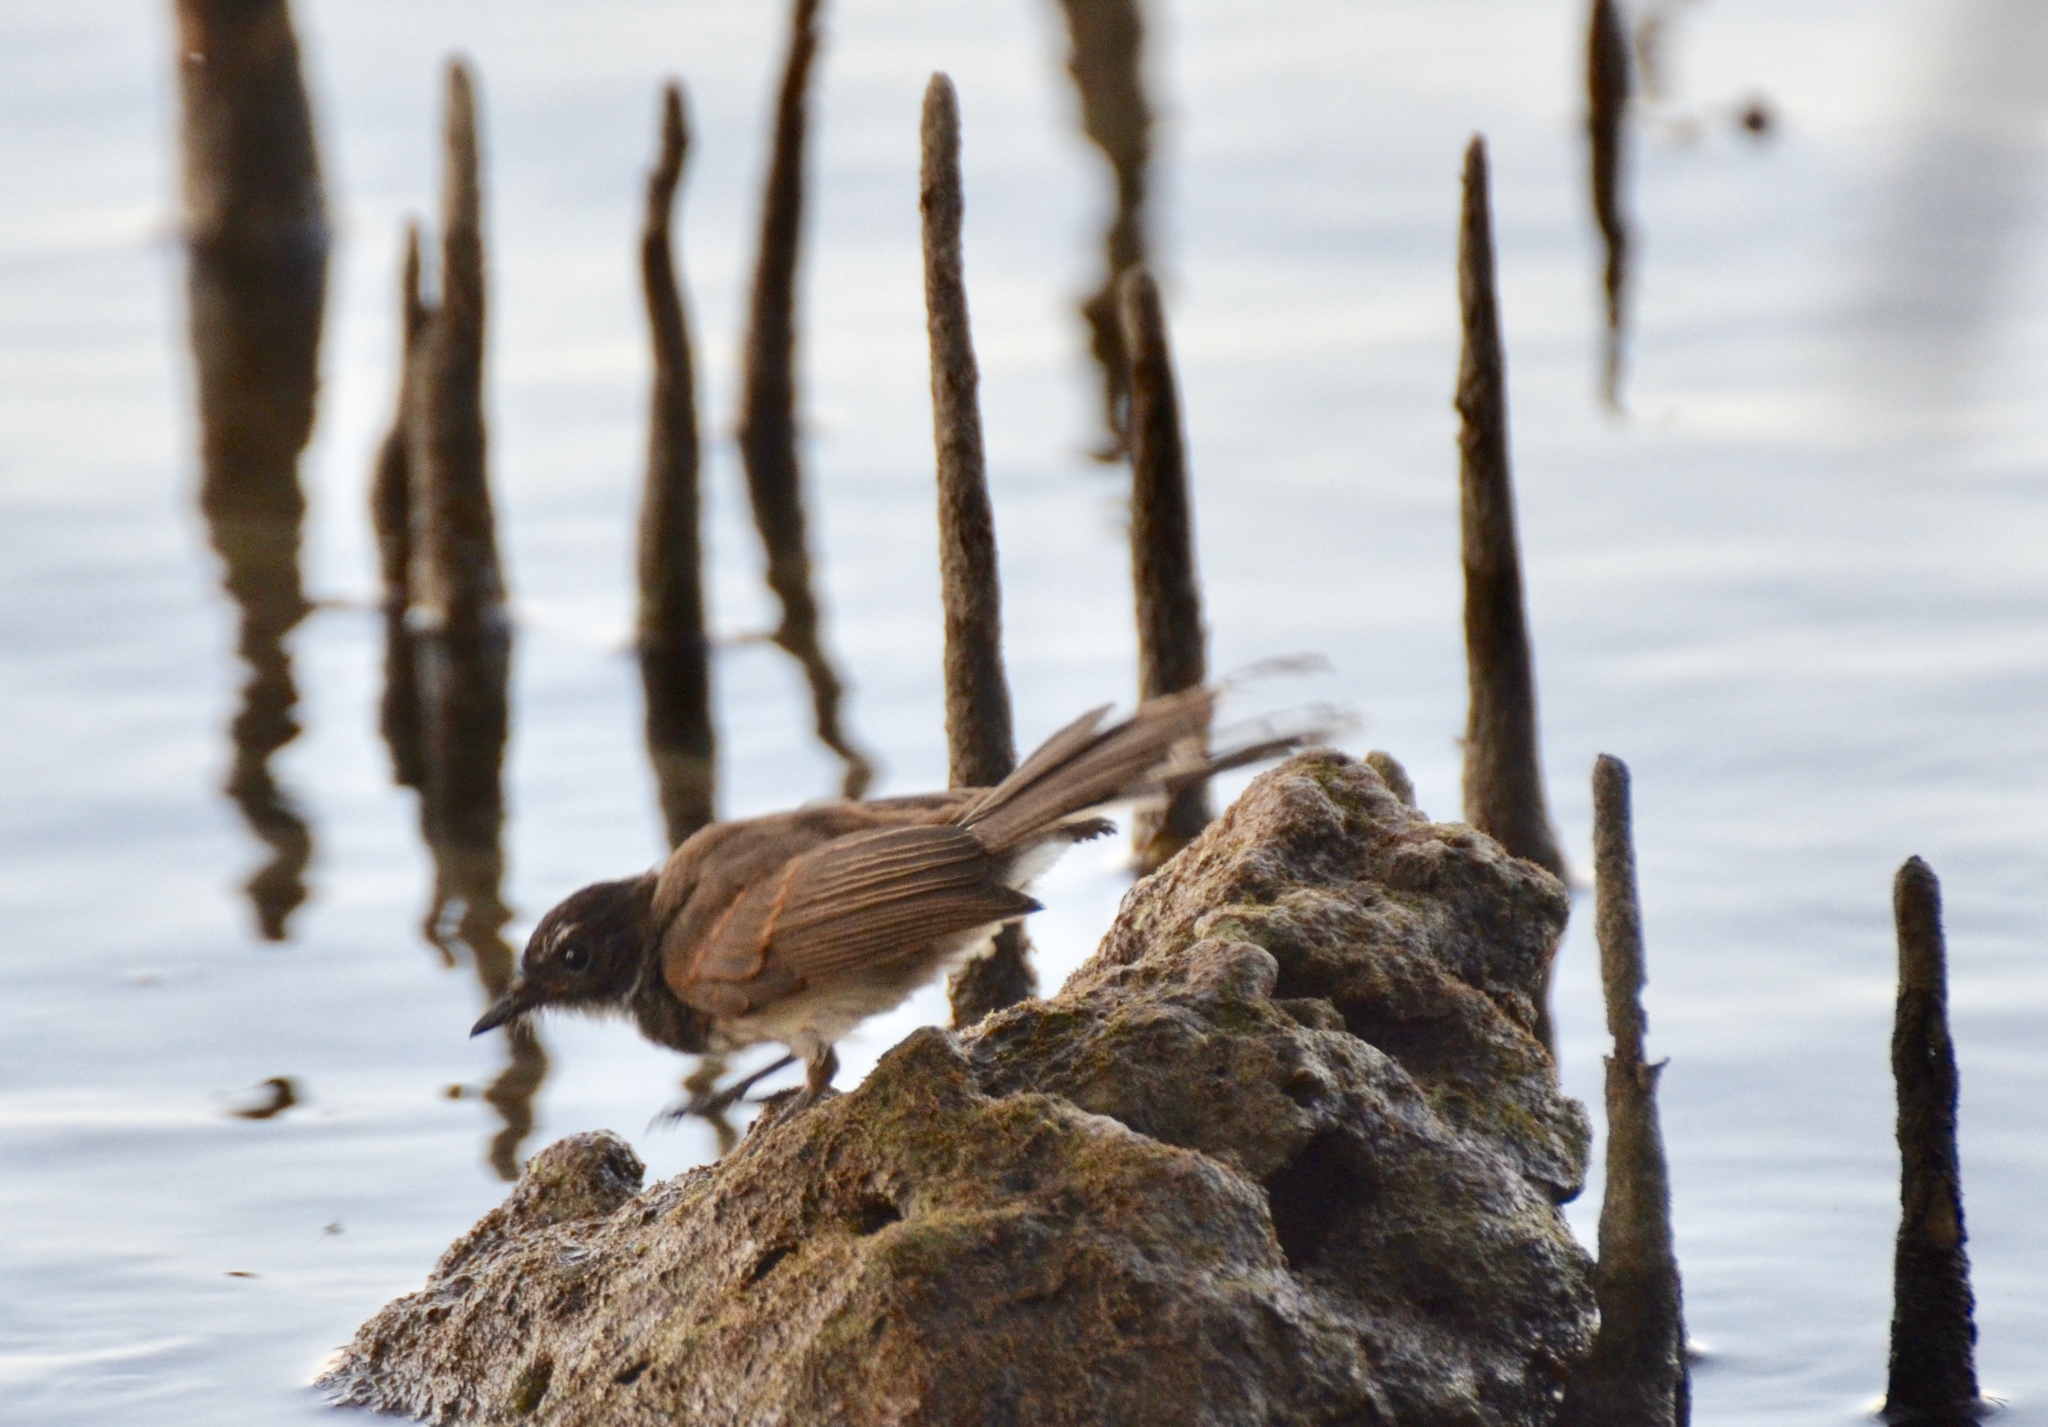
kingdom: Animalia
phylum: Chordata
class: Aves
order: Passeriformes
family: Rhipiduridae
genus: Rhipidura
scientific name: Rhipidura javanica
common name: Pied fantail
